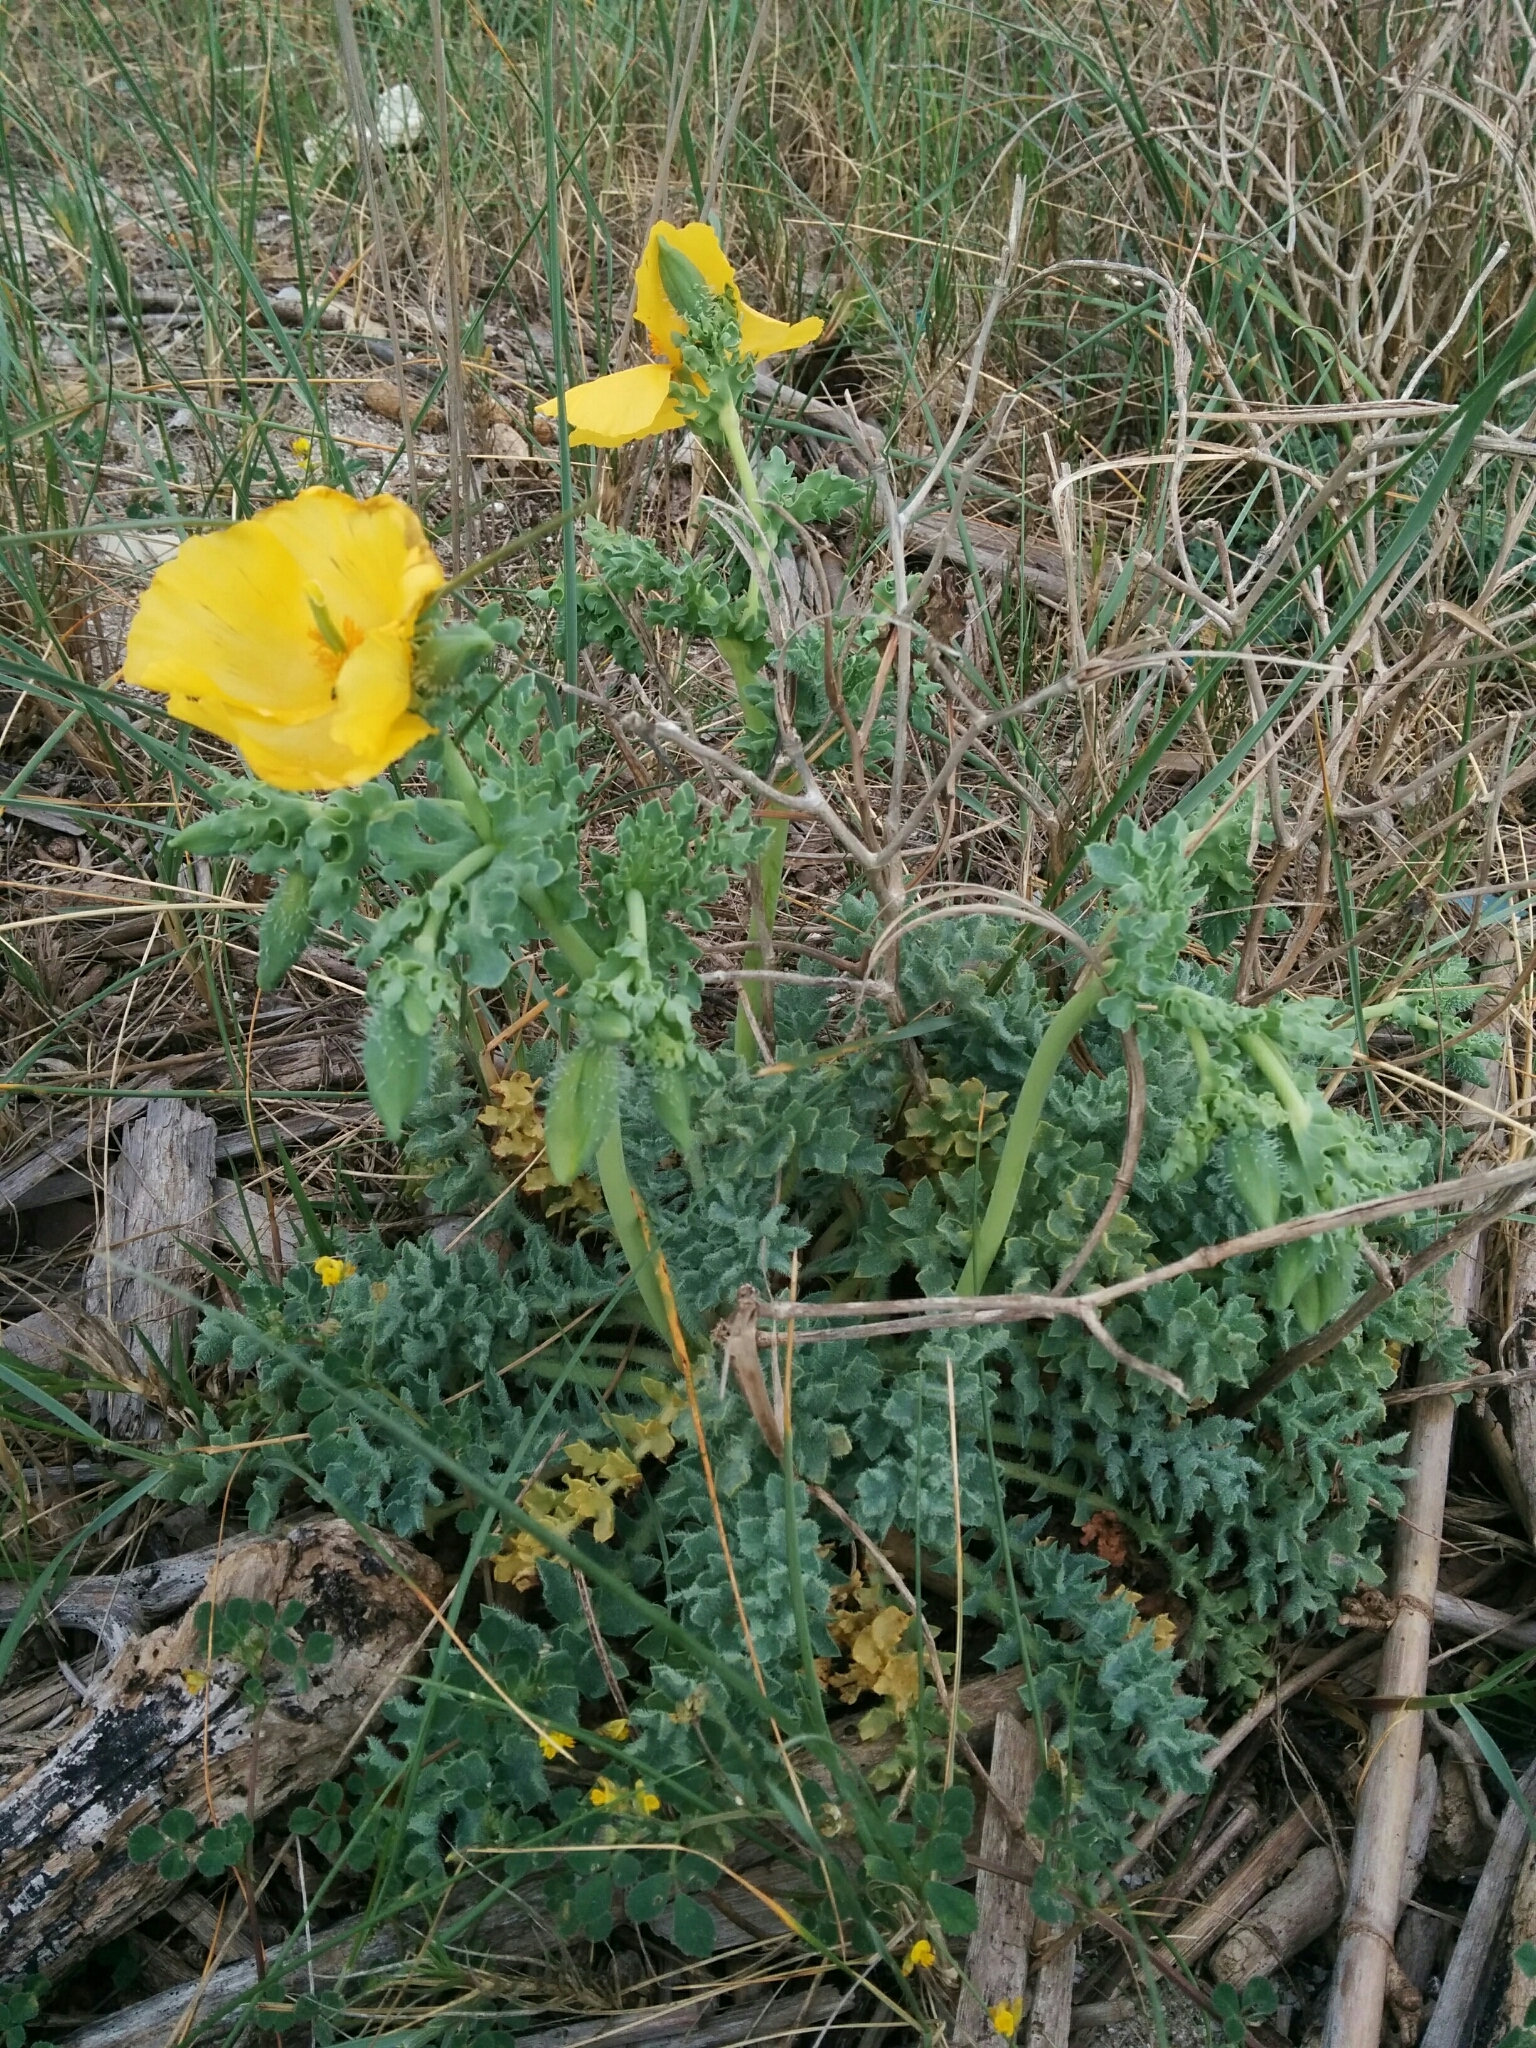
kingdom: Plantae
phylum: Tracheophyta
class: Magnoliopsida
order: Ranunculales
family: Papaveraceae
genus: Glaucium
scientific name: Glaucium flavum
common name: Yellow horned-poppy
